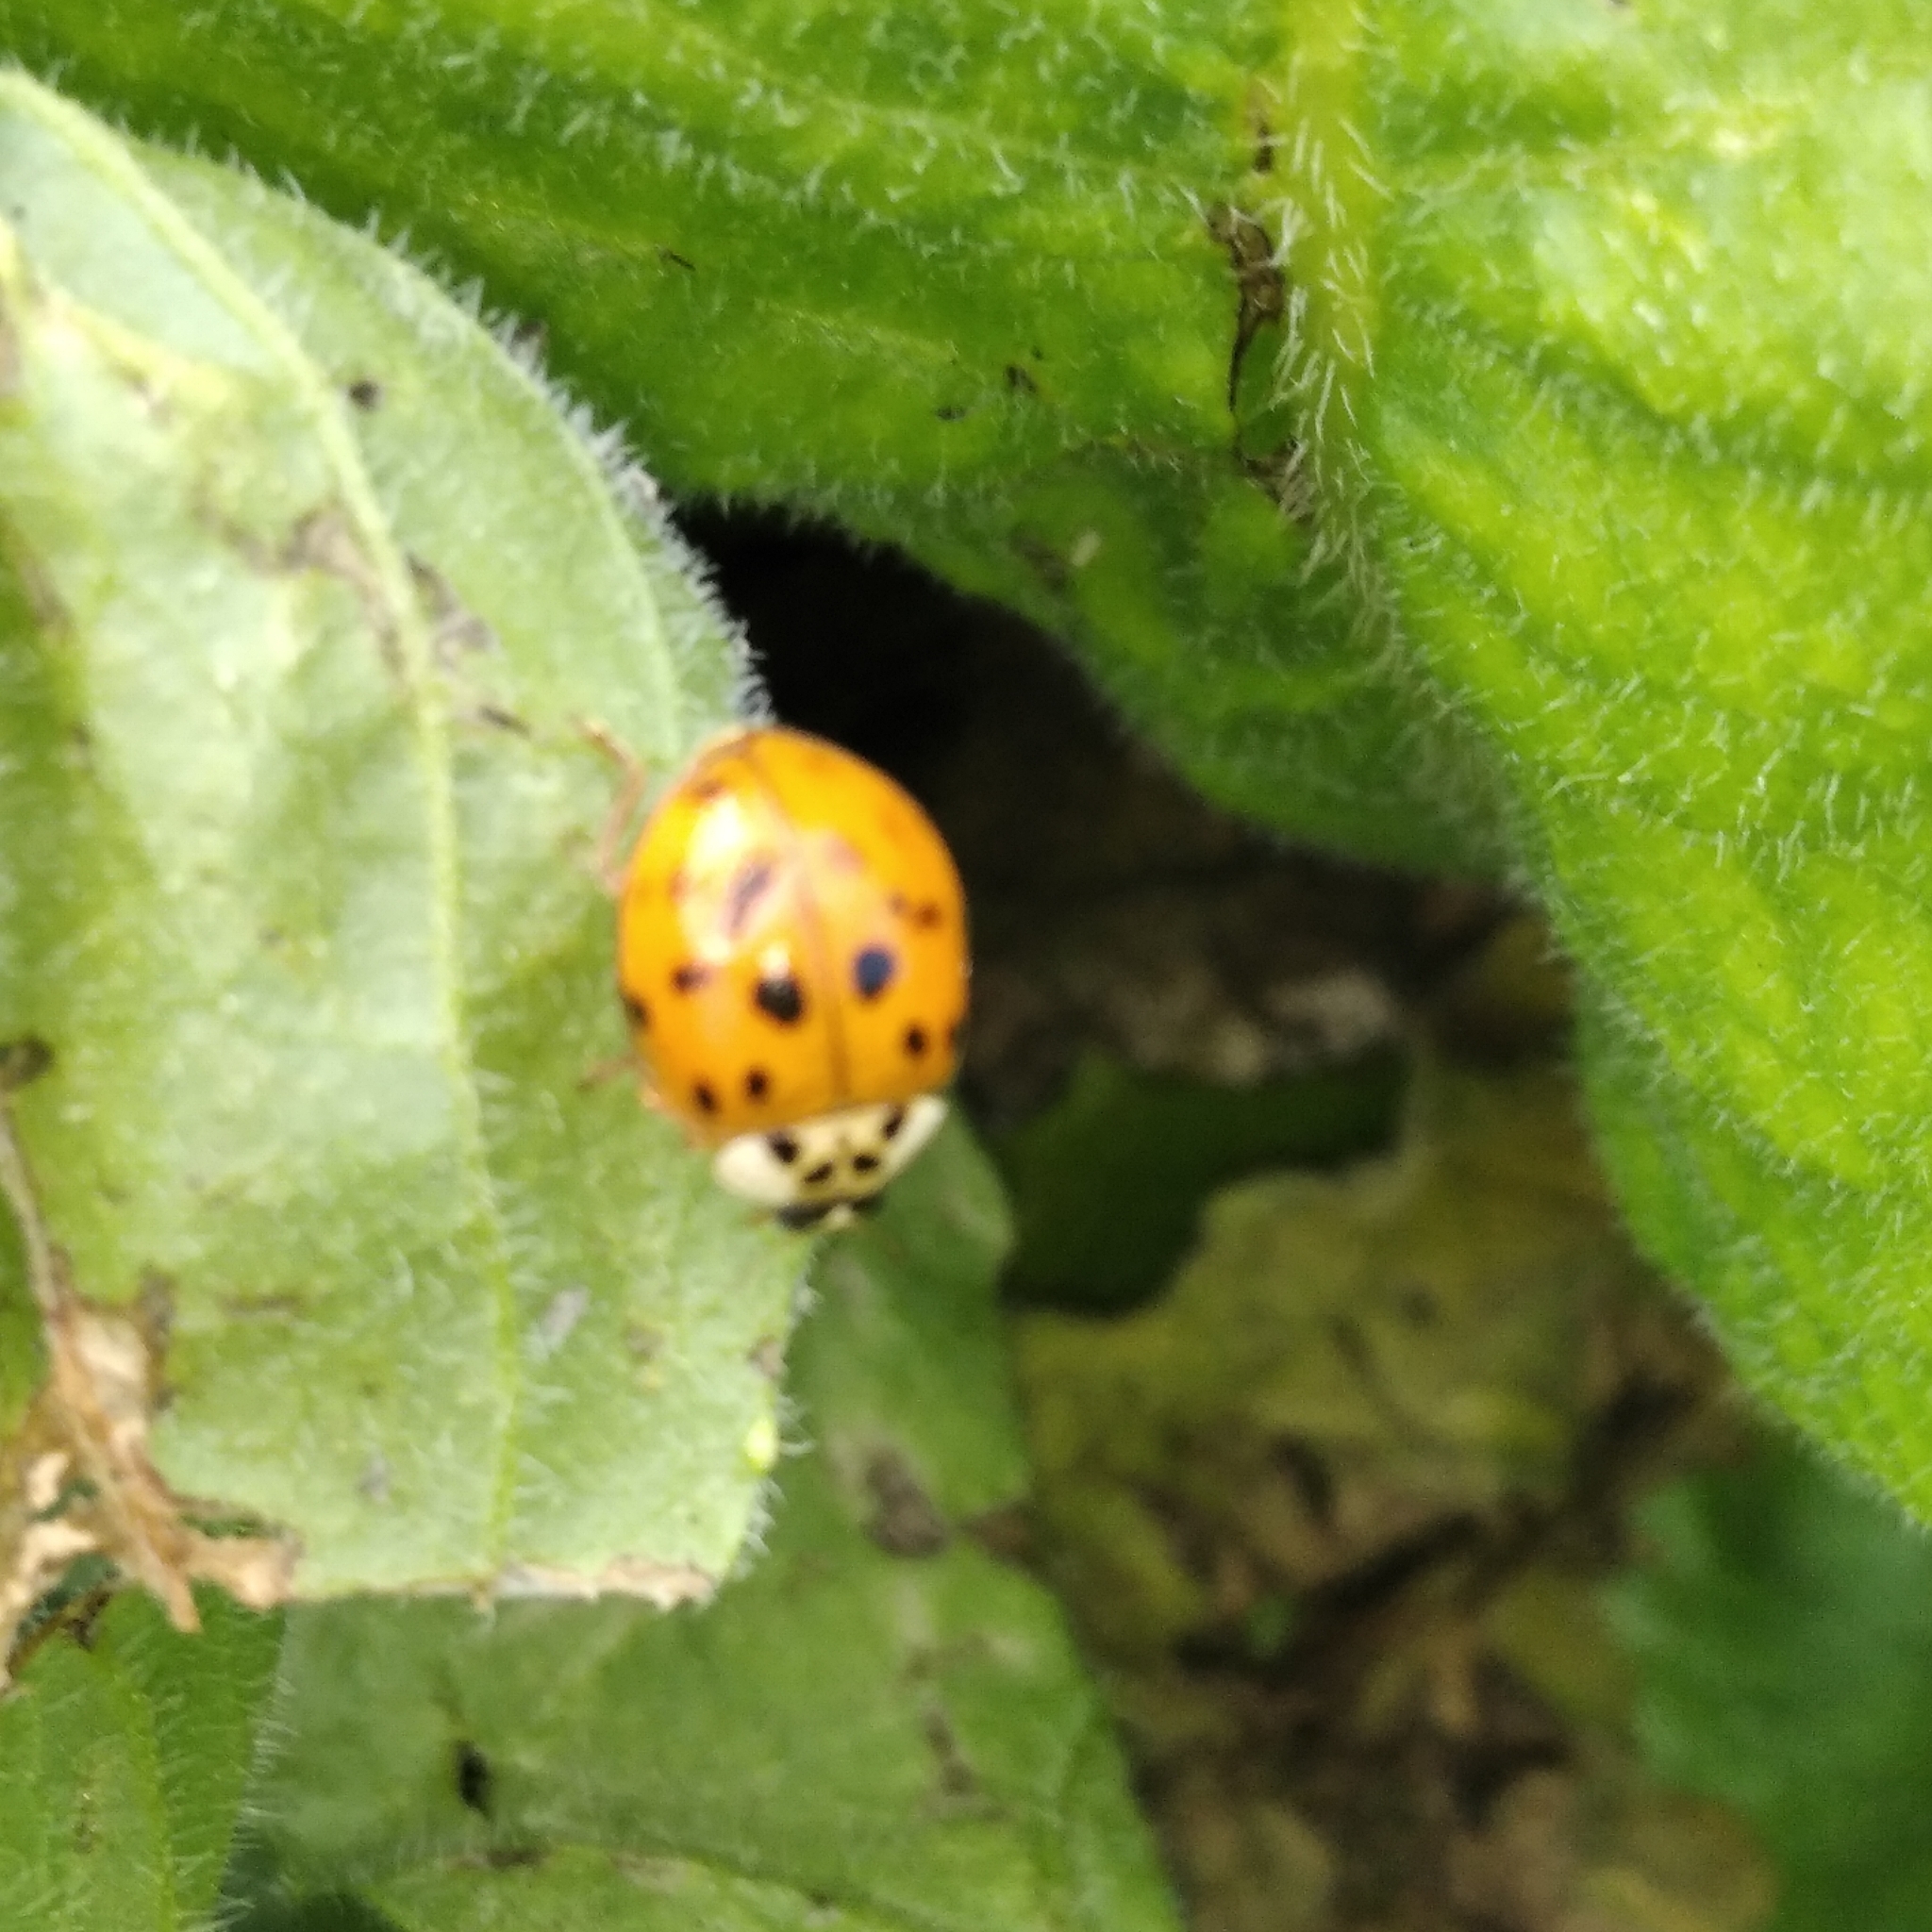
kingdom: Animalia
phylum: Arthropoda
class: Insecta
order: Coleoptera
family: Coccinellidae
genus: Harmonia
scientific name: Harmonia axyridis
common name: Harlequin ladybird
